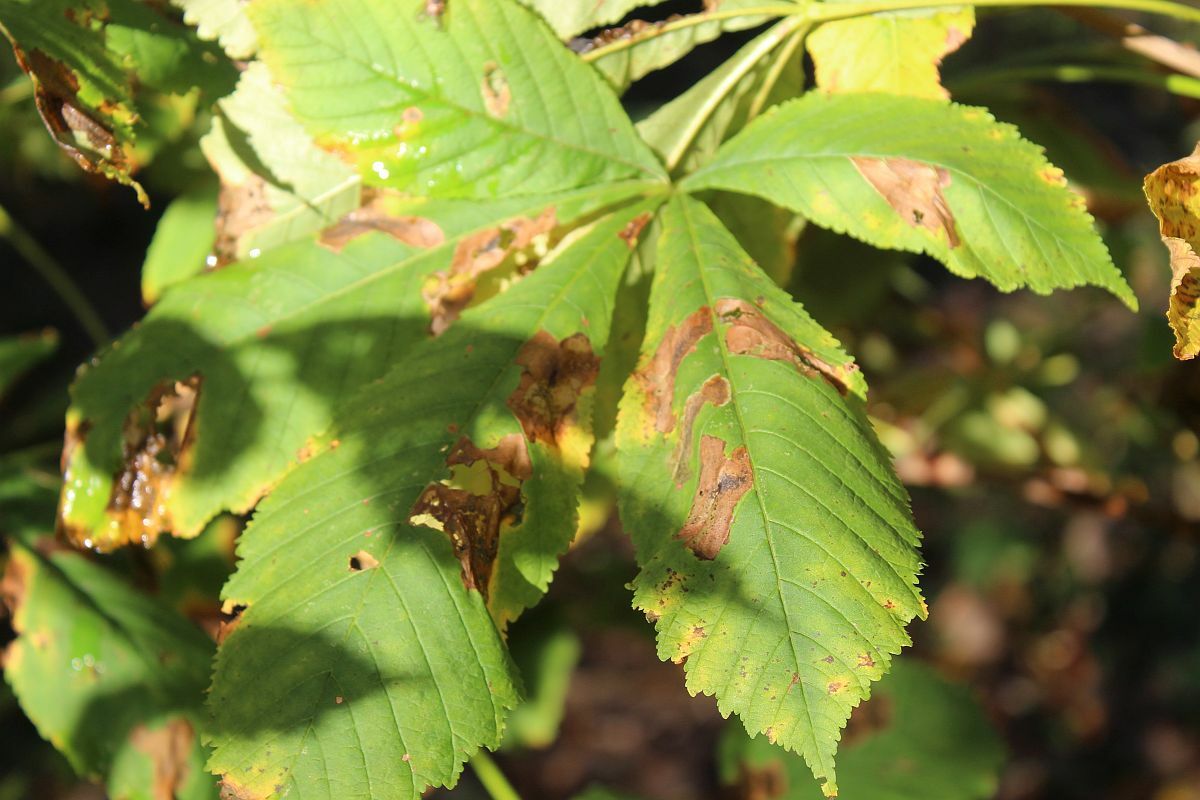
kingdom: Animalia
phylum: Arthropoda
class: Insecta
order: Lepidoptera
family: Gracillariidae
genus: Cameraria
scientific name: Cameraria ohridella
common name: Horse-chestnut leaf-miner
